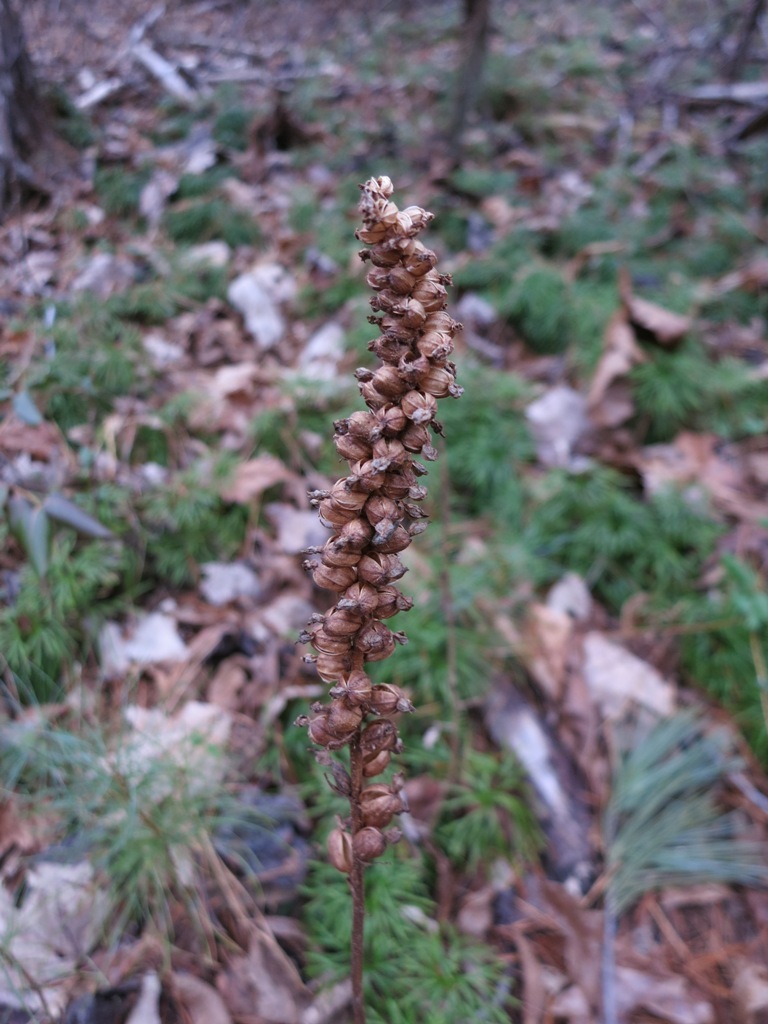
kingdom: Plantae
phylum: Tracheophyta
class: Liliopsida
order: Asparagales
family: Orchidaceae
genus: Goodyera
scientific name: Goodyera pubescens
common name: Downy rattlesnake-plantain
